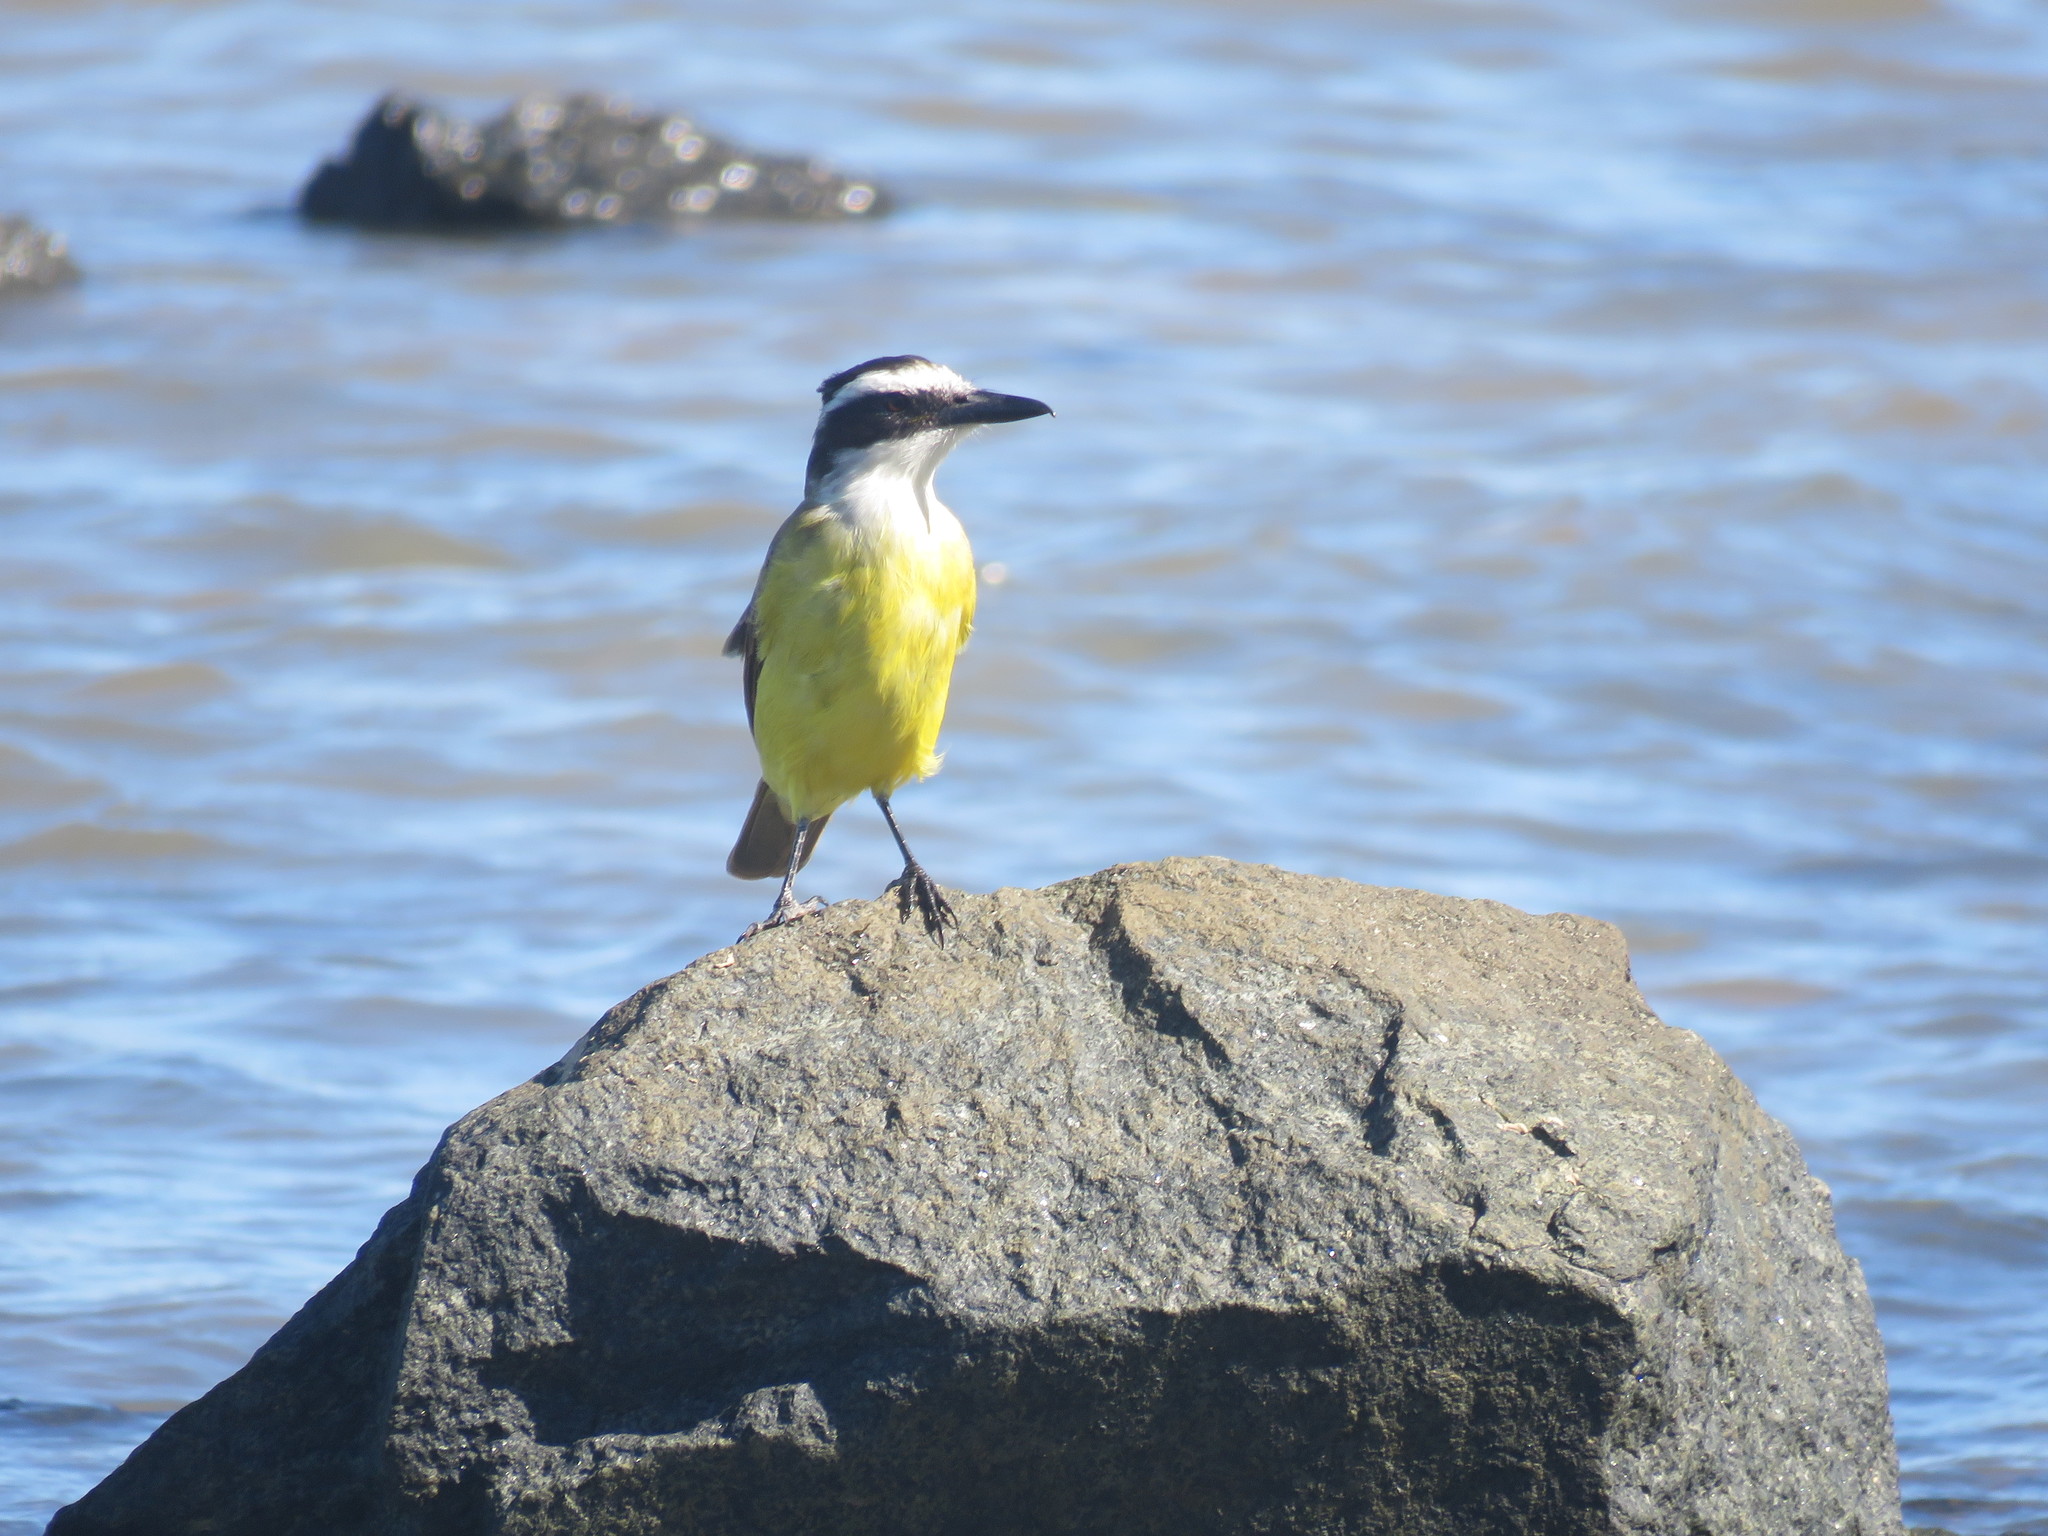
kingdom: Animalia
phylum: Chordata
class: Aves
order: Passeriformes
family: Tyrannidae
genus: Pitangus
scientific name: Pitangus sulphuratus
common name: Great kiskadee
